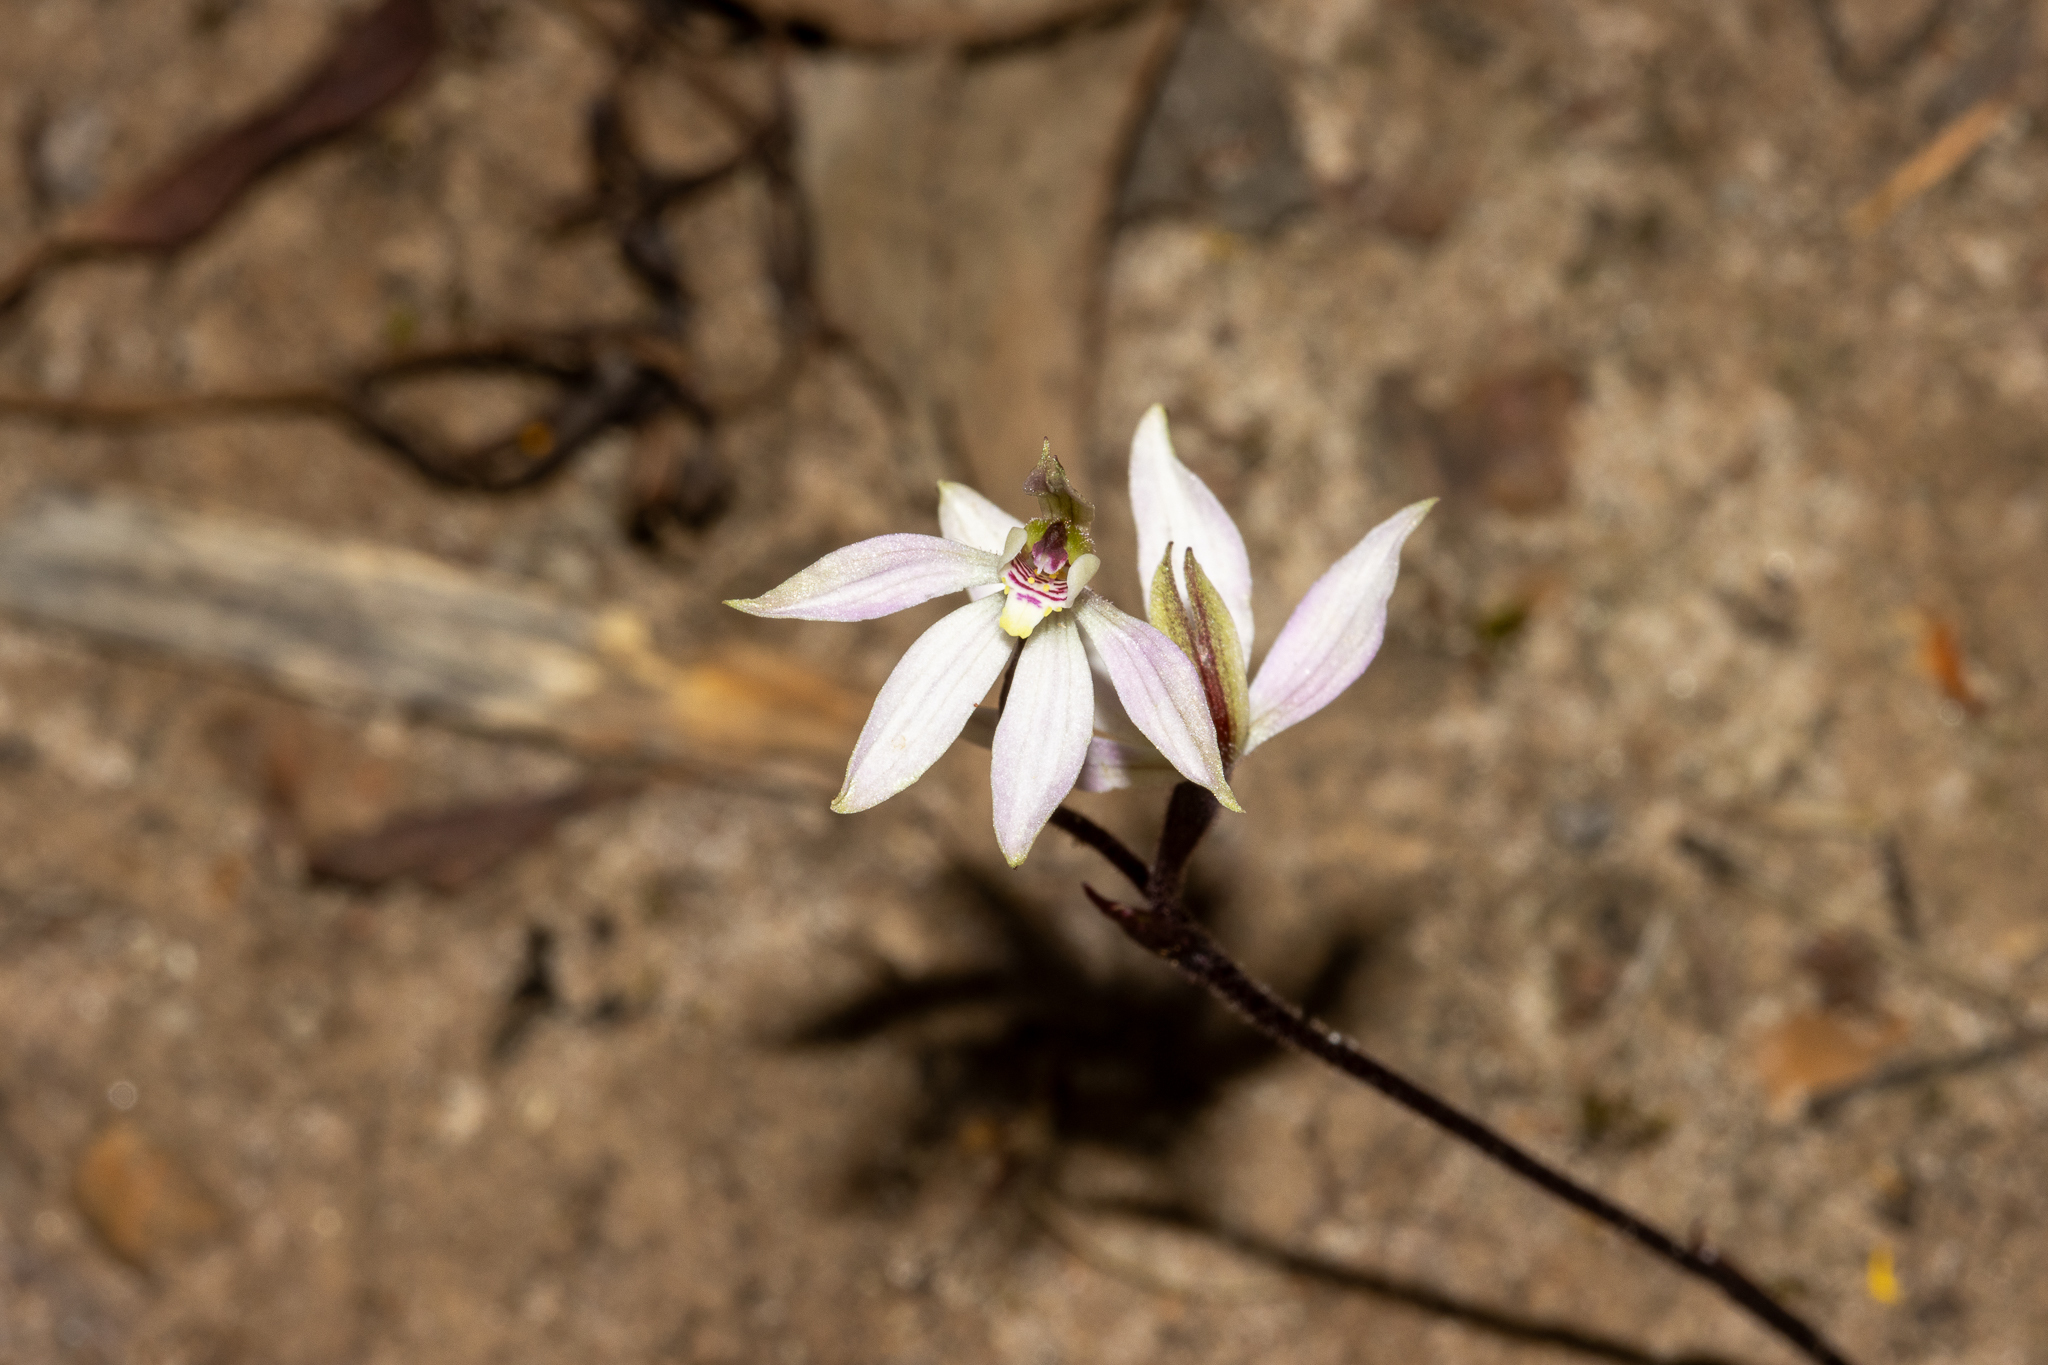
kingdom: Plantae
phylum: Tracheophyta
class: Liliopsida
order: Asparagales
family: Orchidaceae
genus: Caladenia
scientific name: Caladenia carnea
